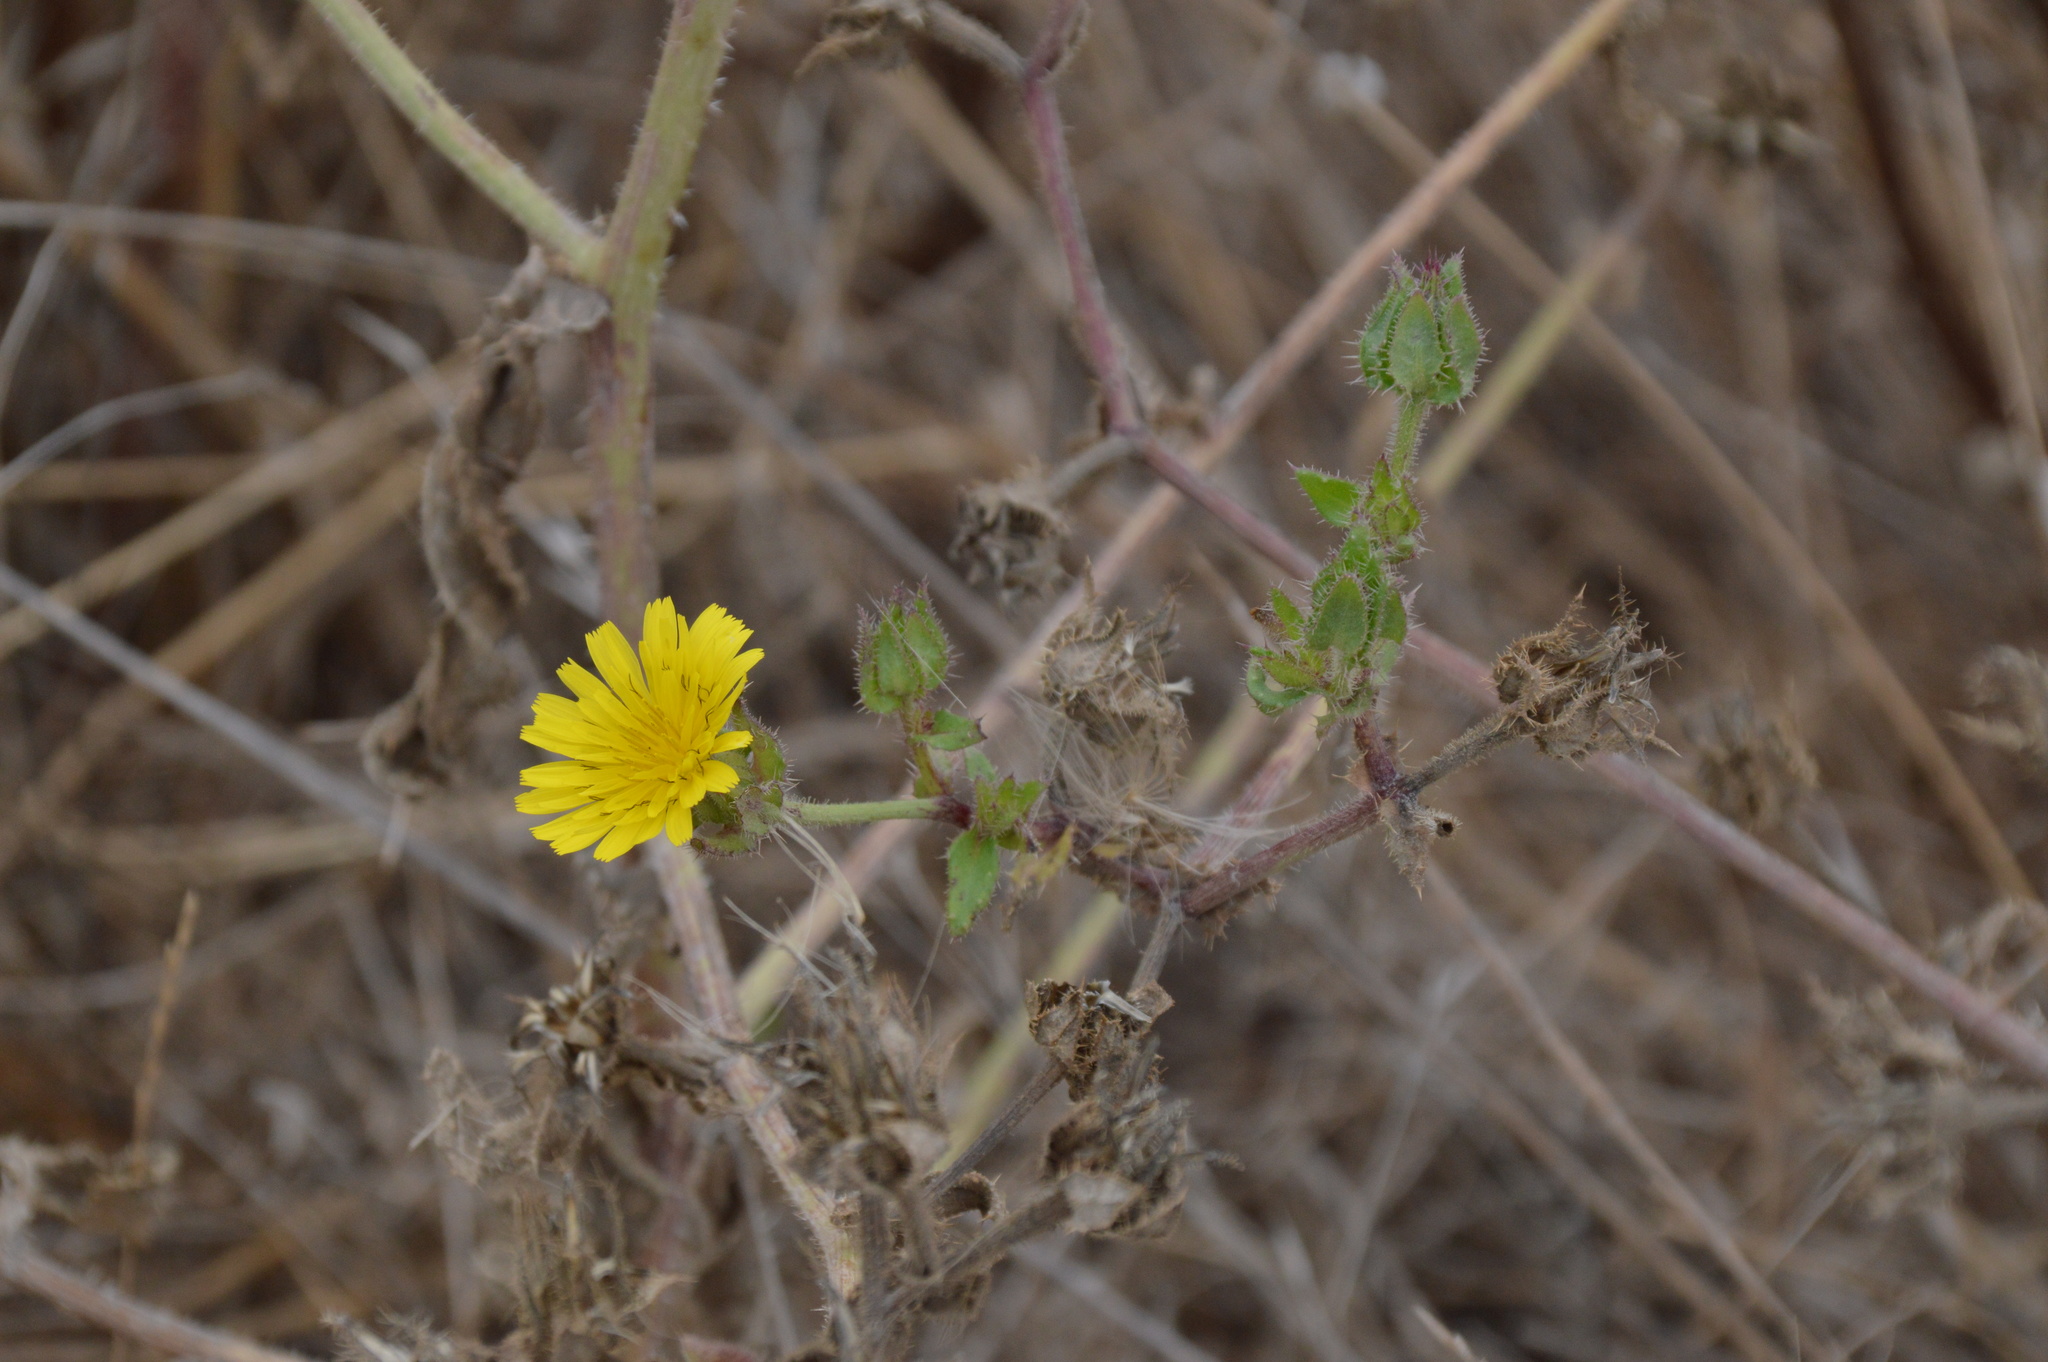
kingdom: Plantae
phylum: Tracheophyta
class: Magnoliopsida
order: Asterales
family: Asteraceae
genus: Helminthotheca
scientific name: Helminthotheca echioides
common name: Ox-tongue
